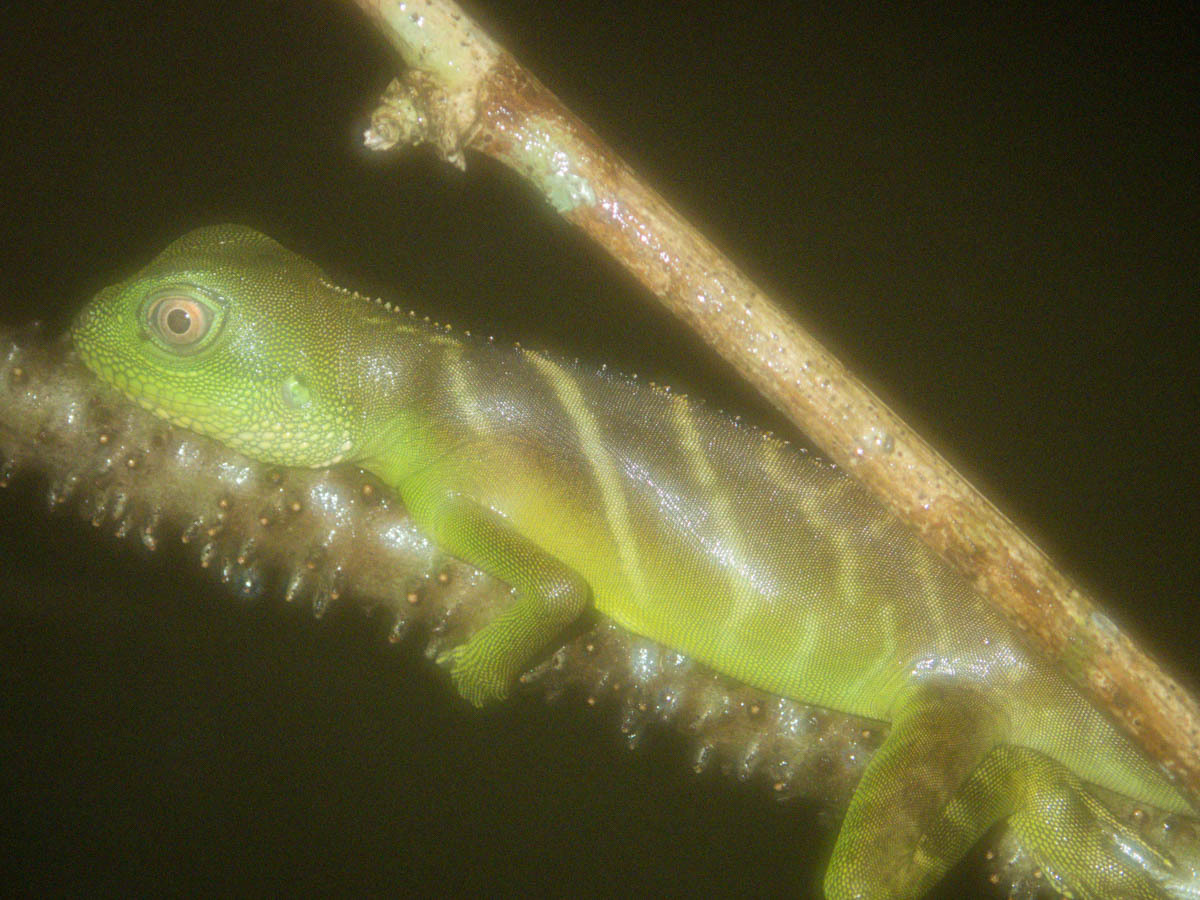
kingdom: Animalia
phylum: Chordata
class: Squamata
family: Agamidae
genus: Physignathus
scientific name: Physignathus cocincinus
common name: Asian water dragon
